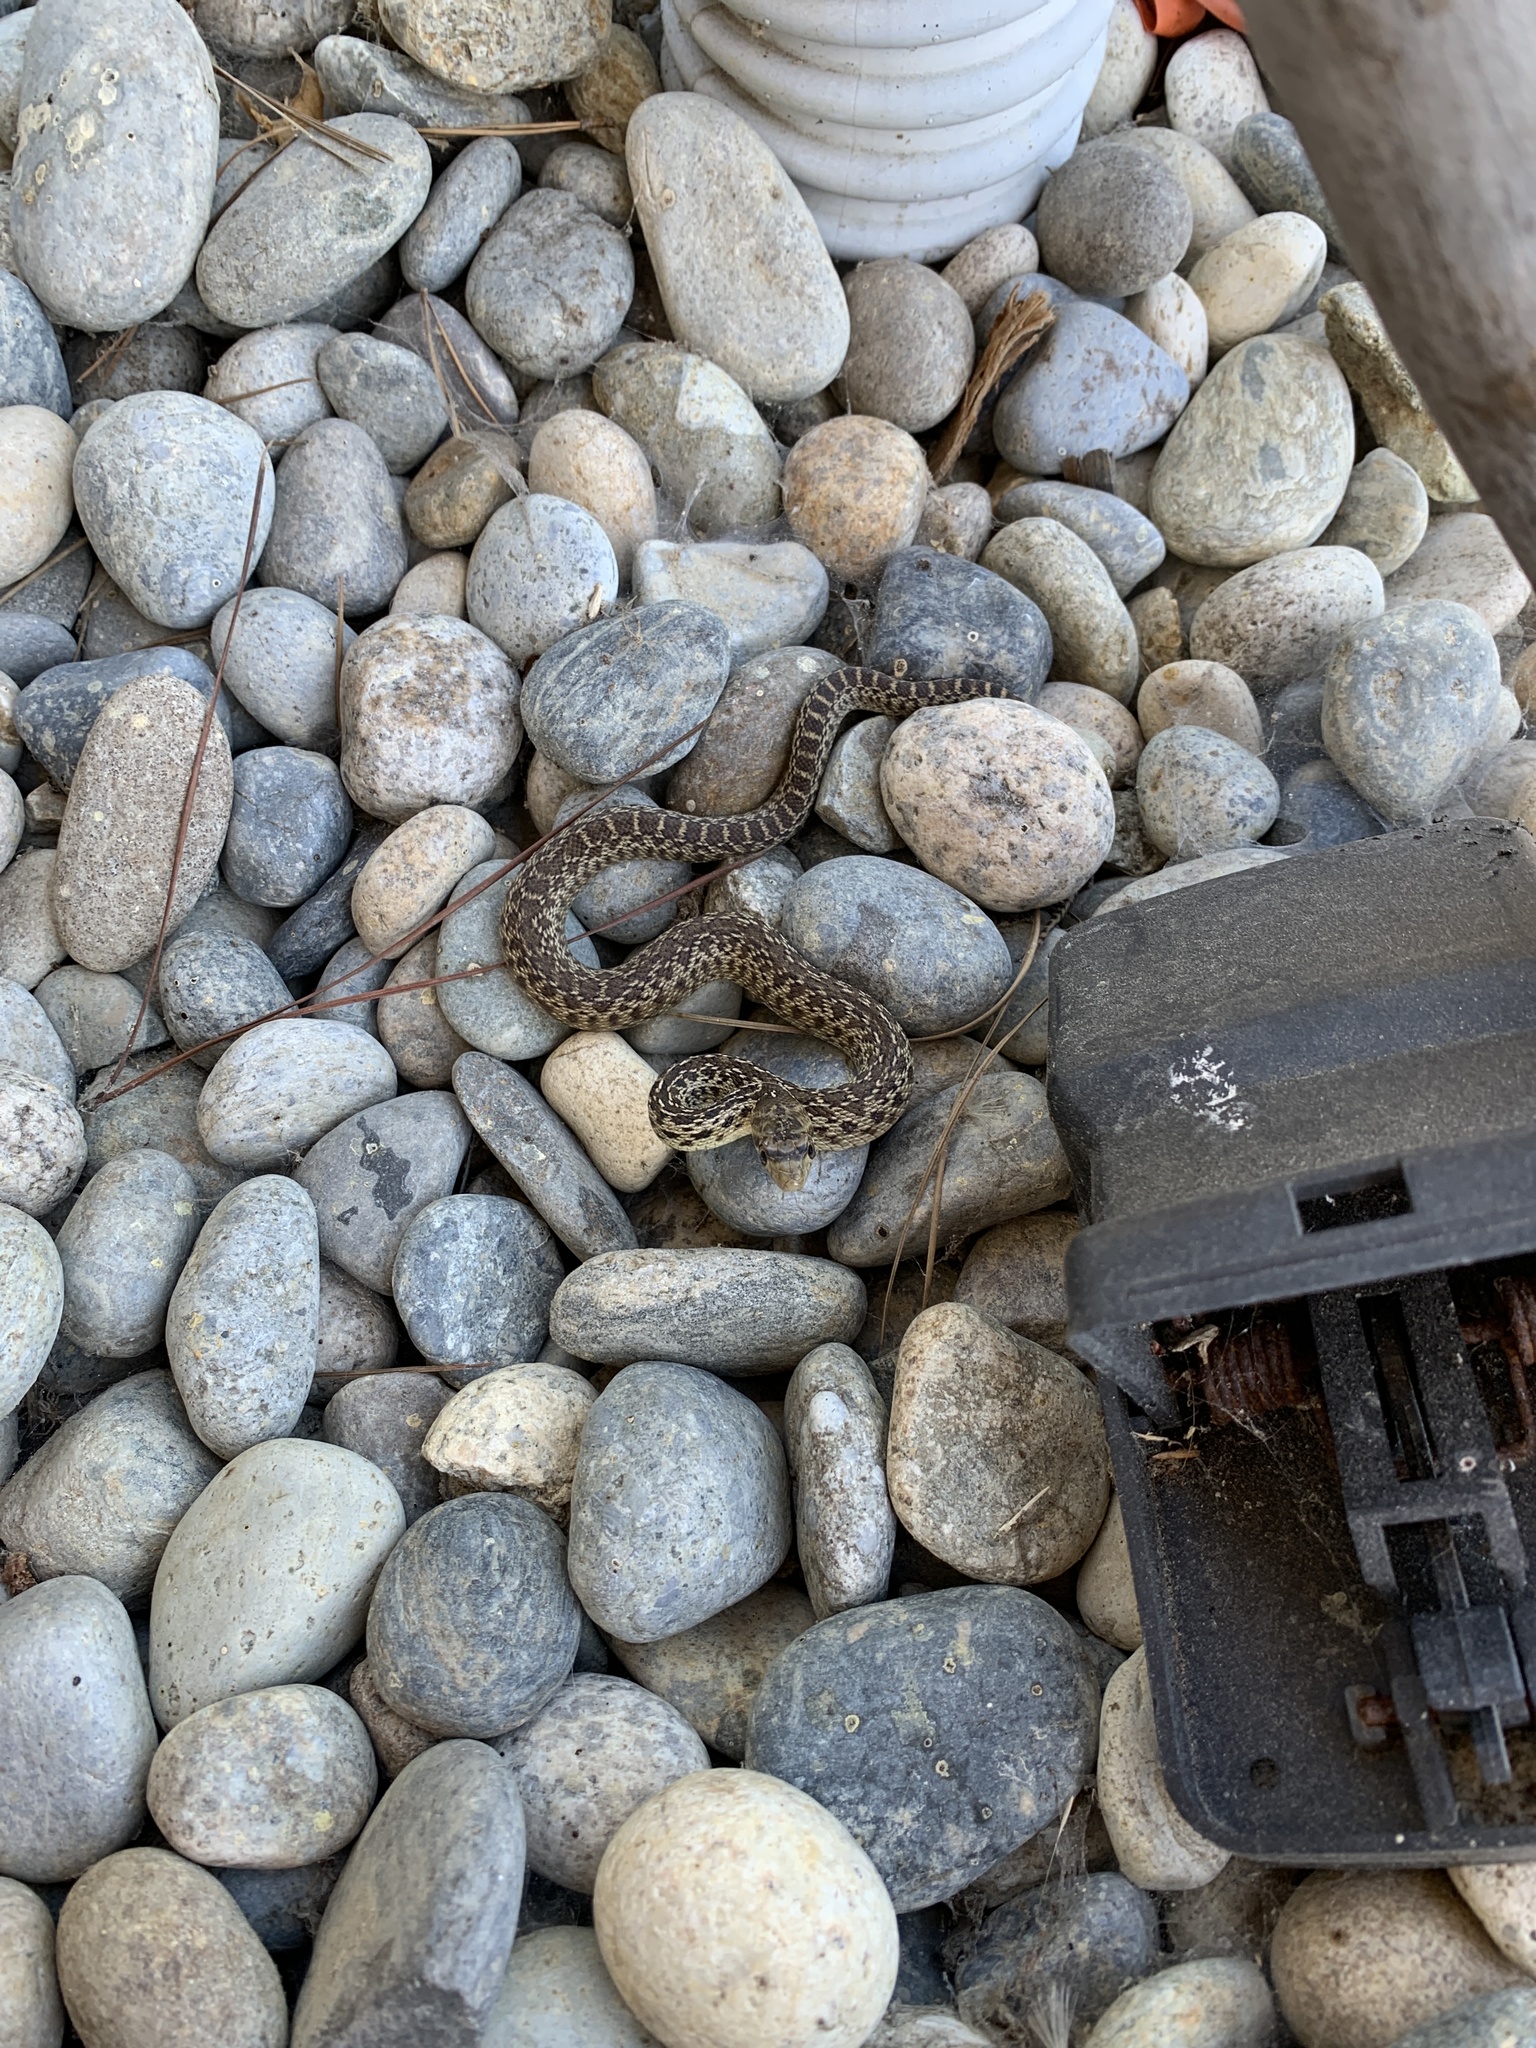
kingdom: Animalia
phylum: Chordata
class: Squamata
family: Colubridae
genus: Pituophis
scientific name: Pituophis catenifer
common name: Gopher snake
